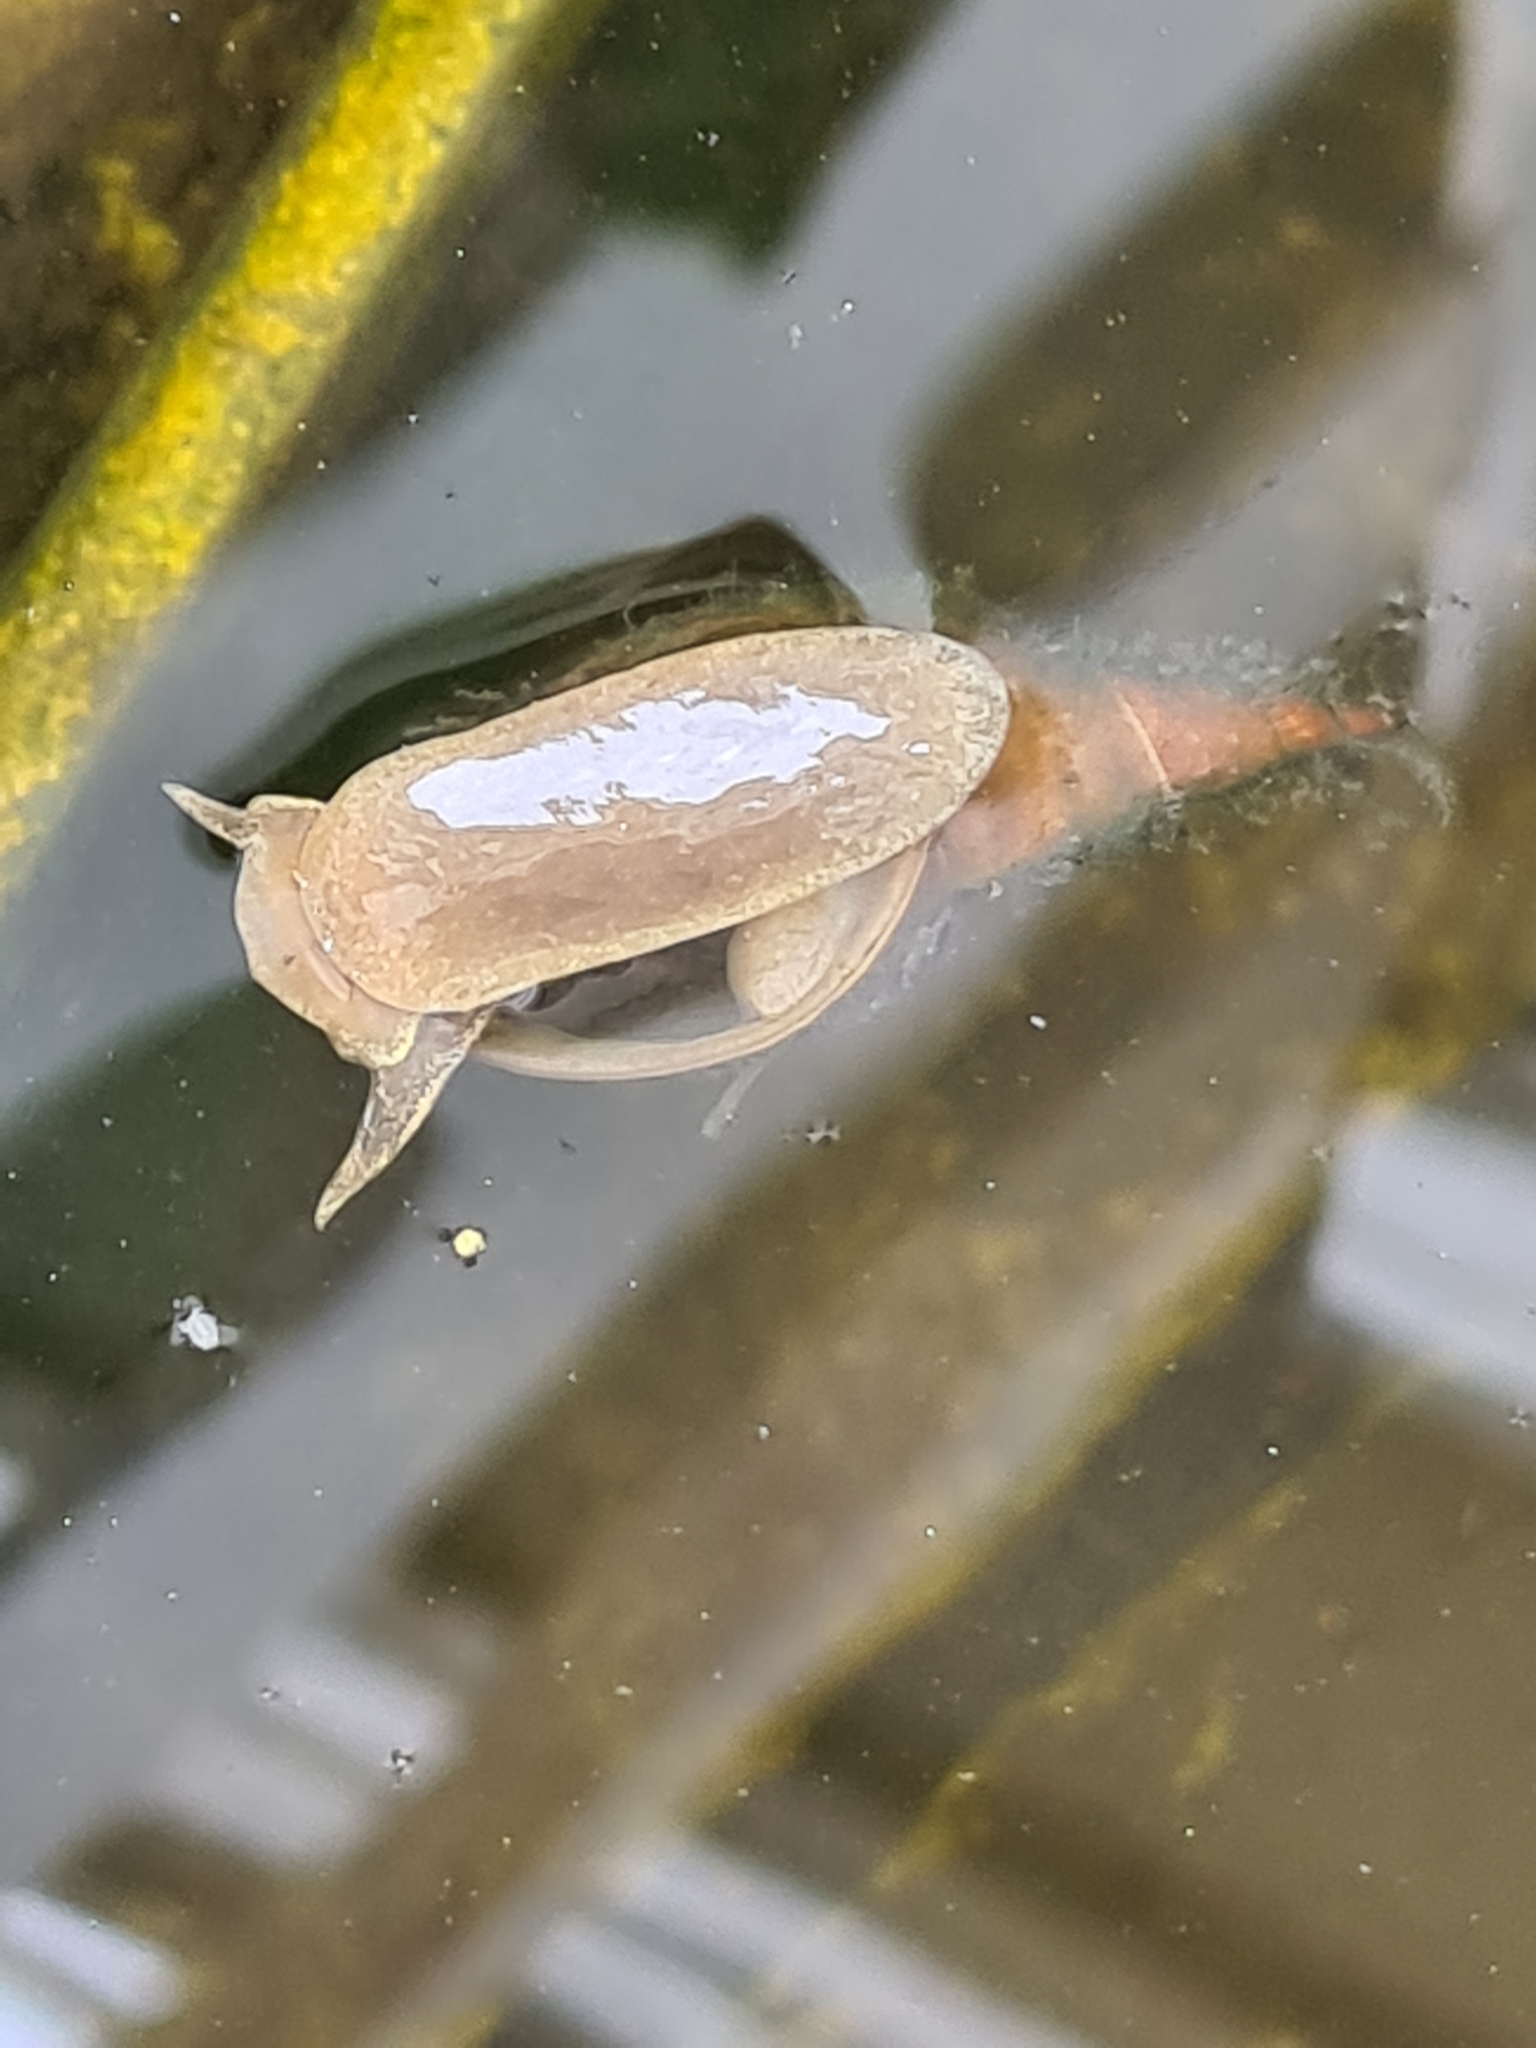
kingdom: Animalia
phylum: Mollusca
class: Gastropoda
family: Lymnaeidae
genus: Lymnaea
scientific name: Lymnaea stagnalis
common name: Great pond snail
